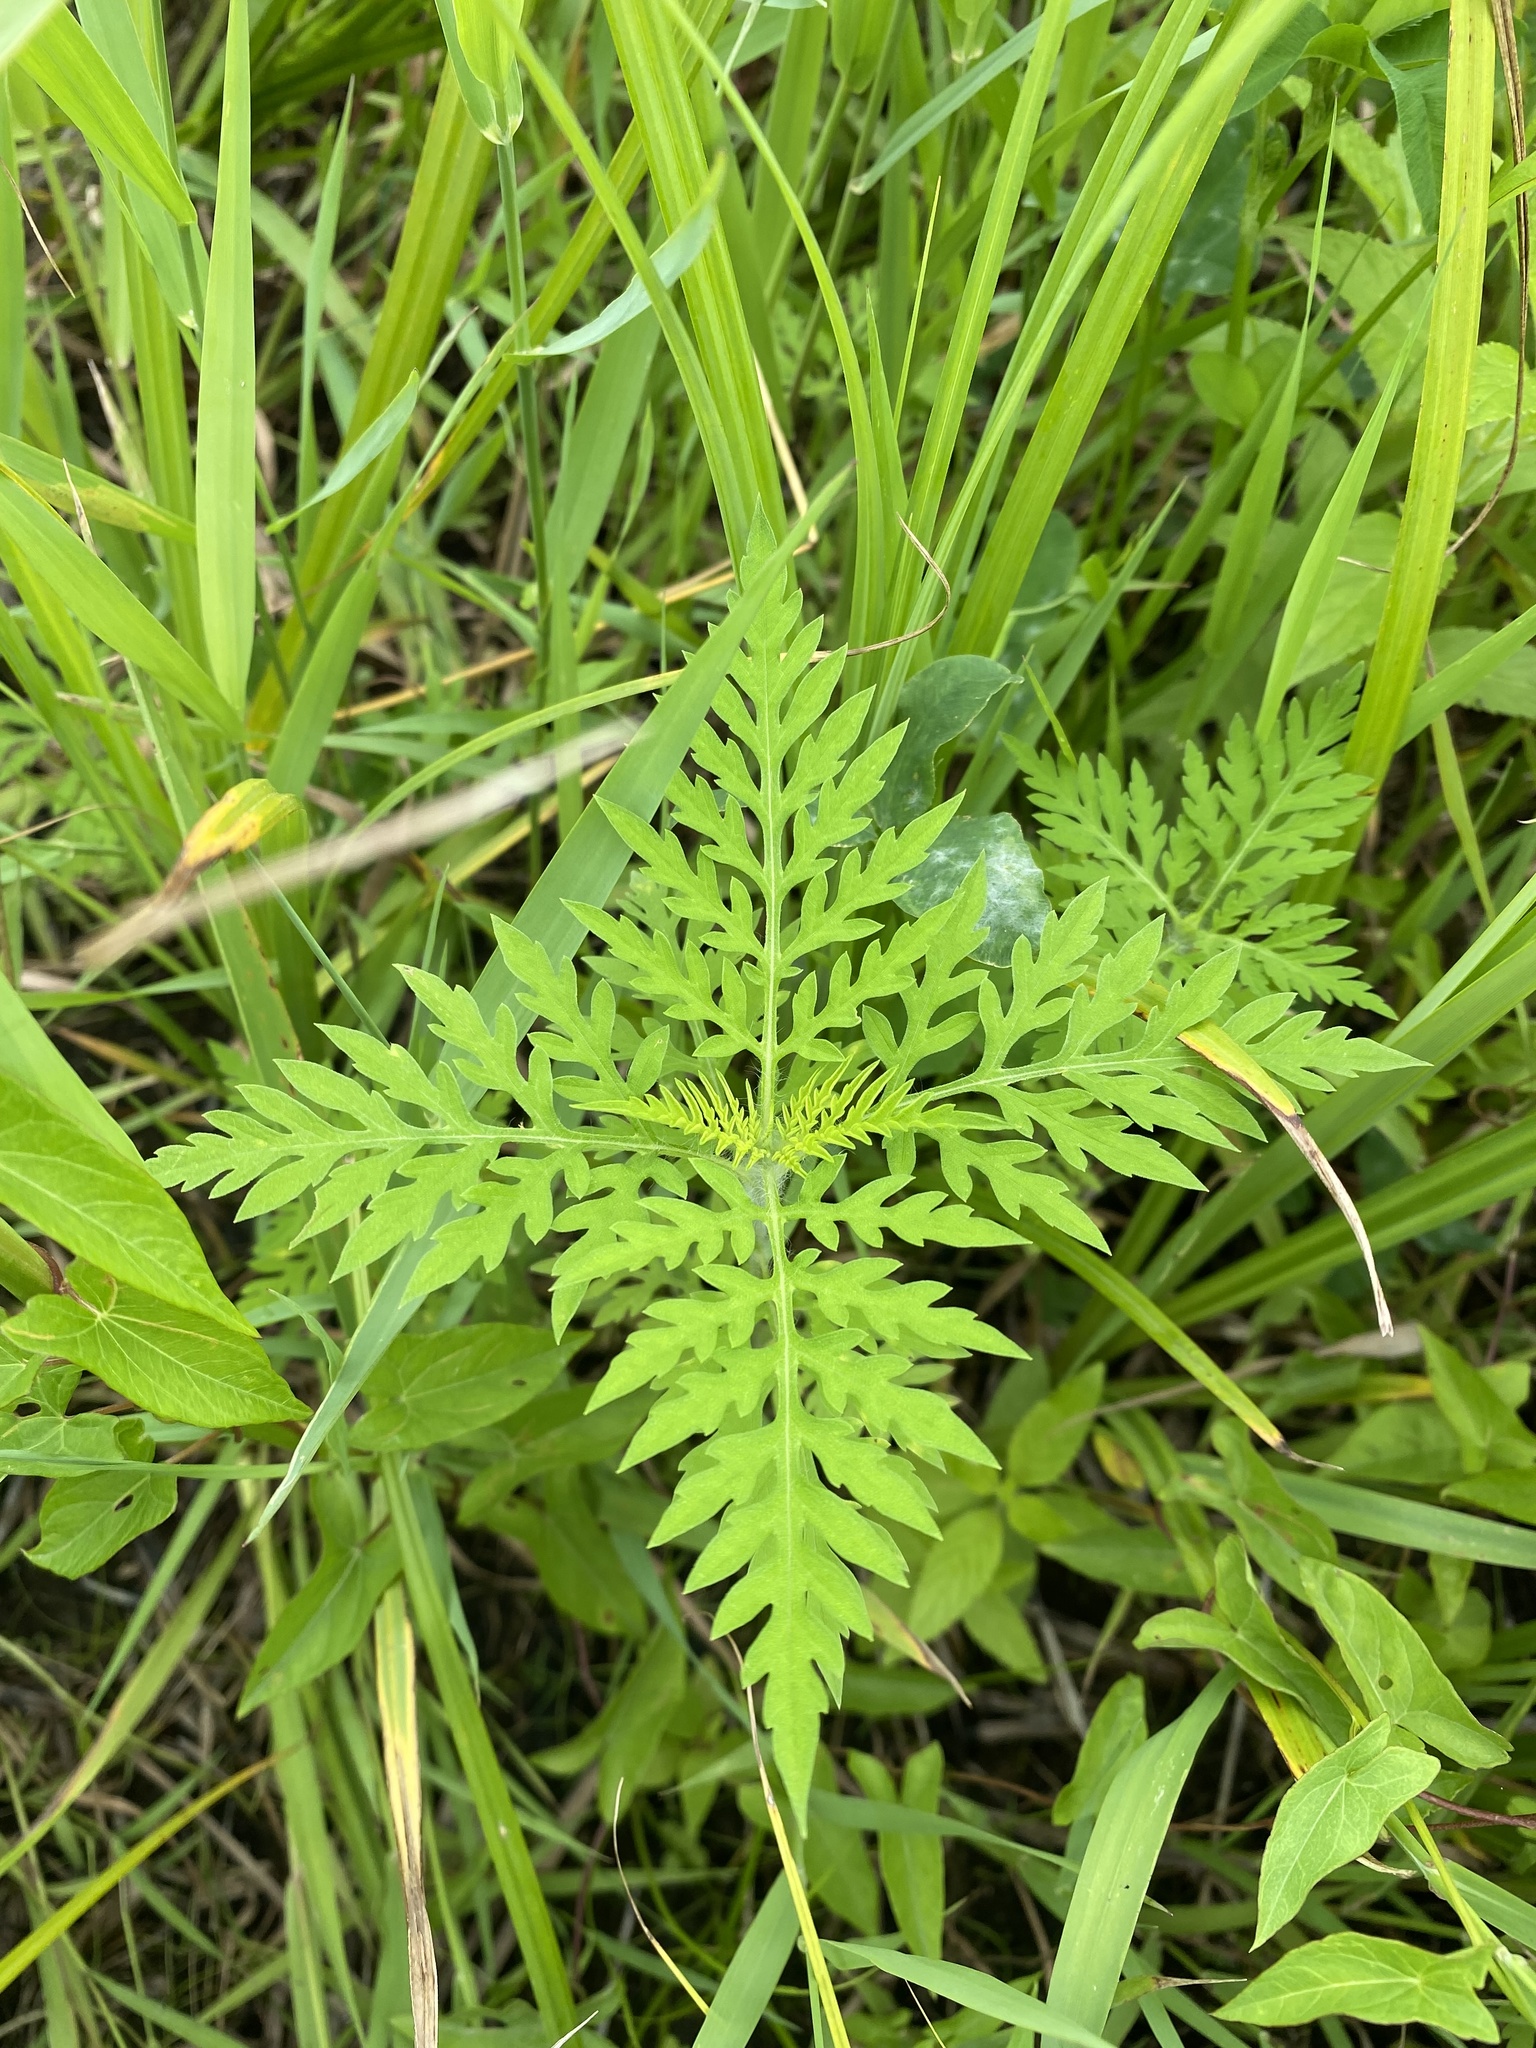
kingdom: Plantae
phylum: Tracheophyta
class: Magnoliopsida
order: Asterales
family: Asteraceae
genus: Ambrosia
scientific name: Ambrosia artemisiifolia
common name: Annual ragweed
